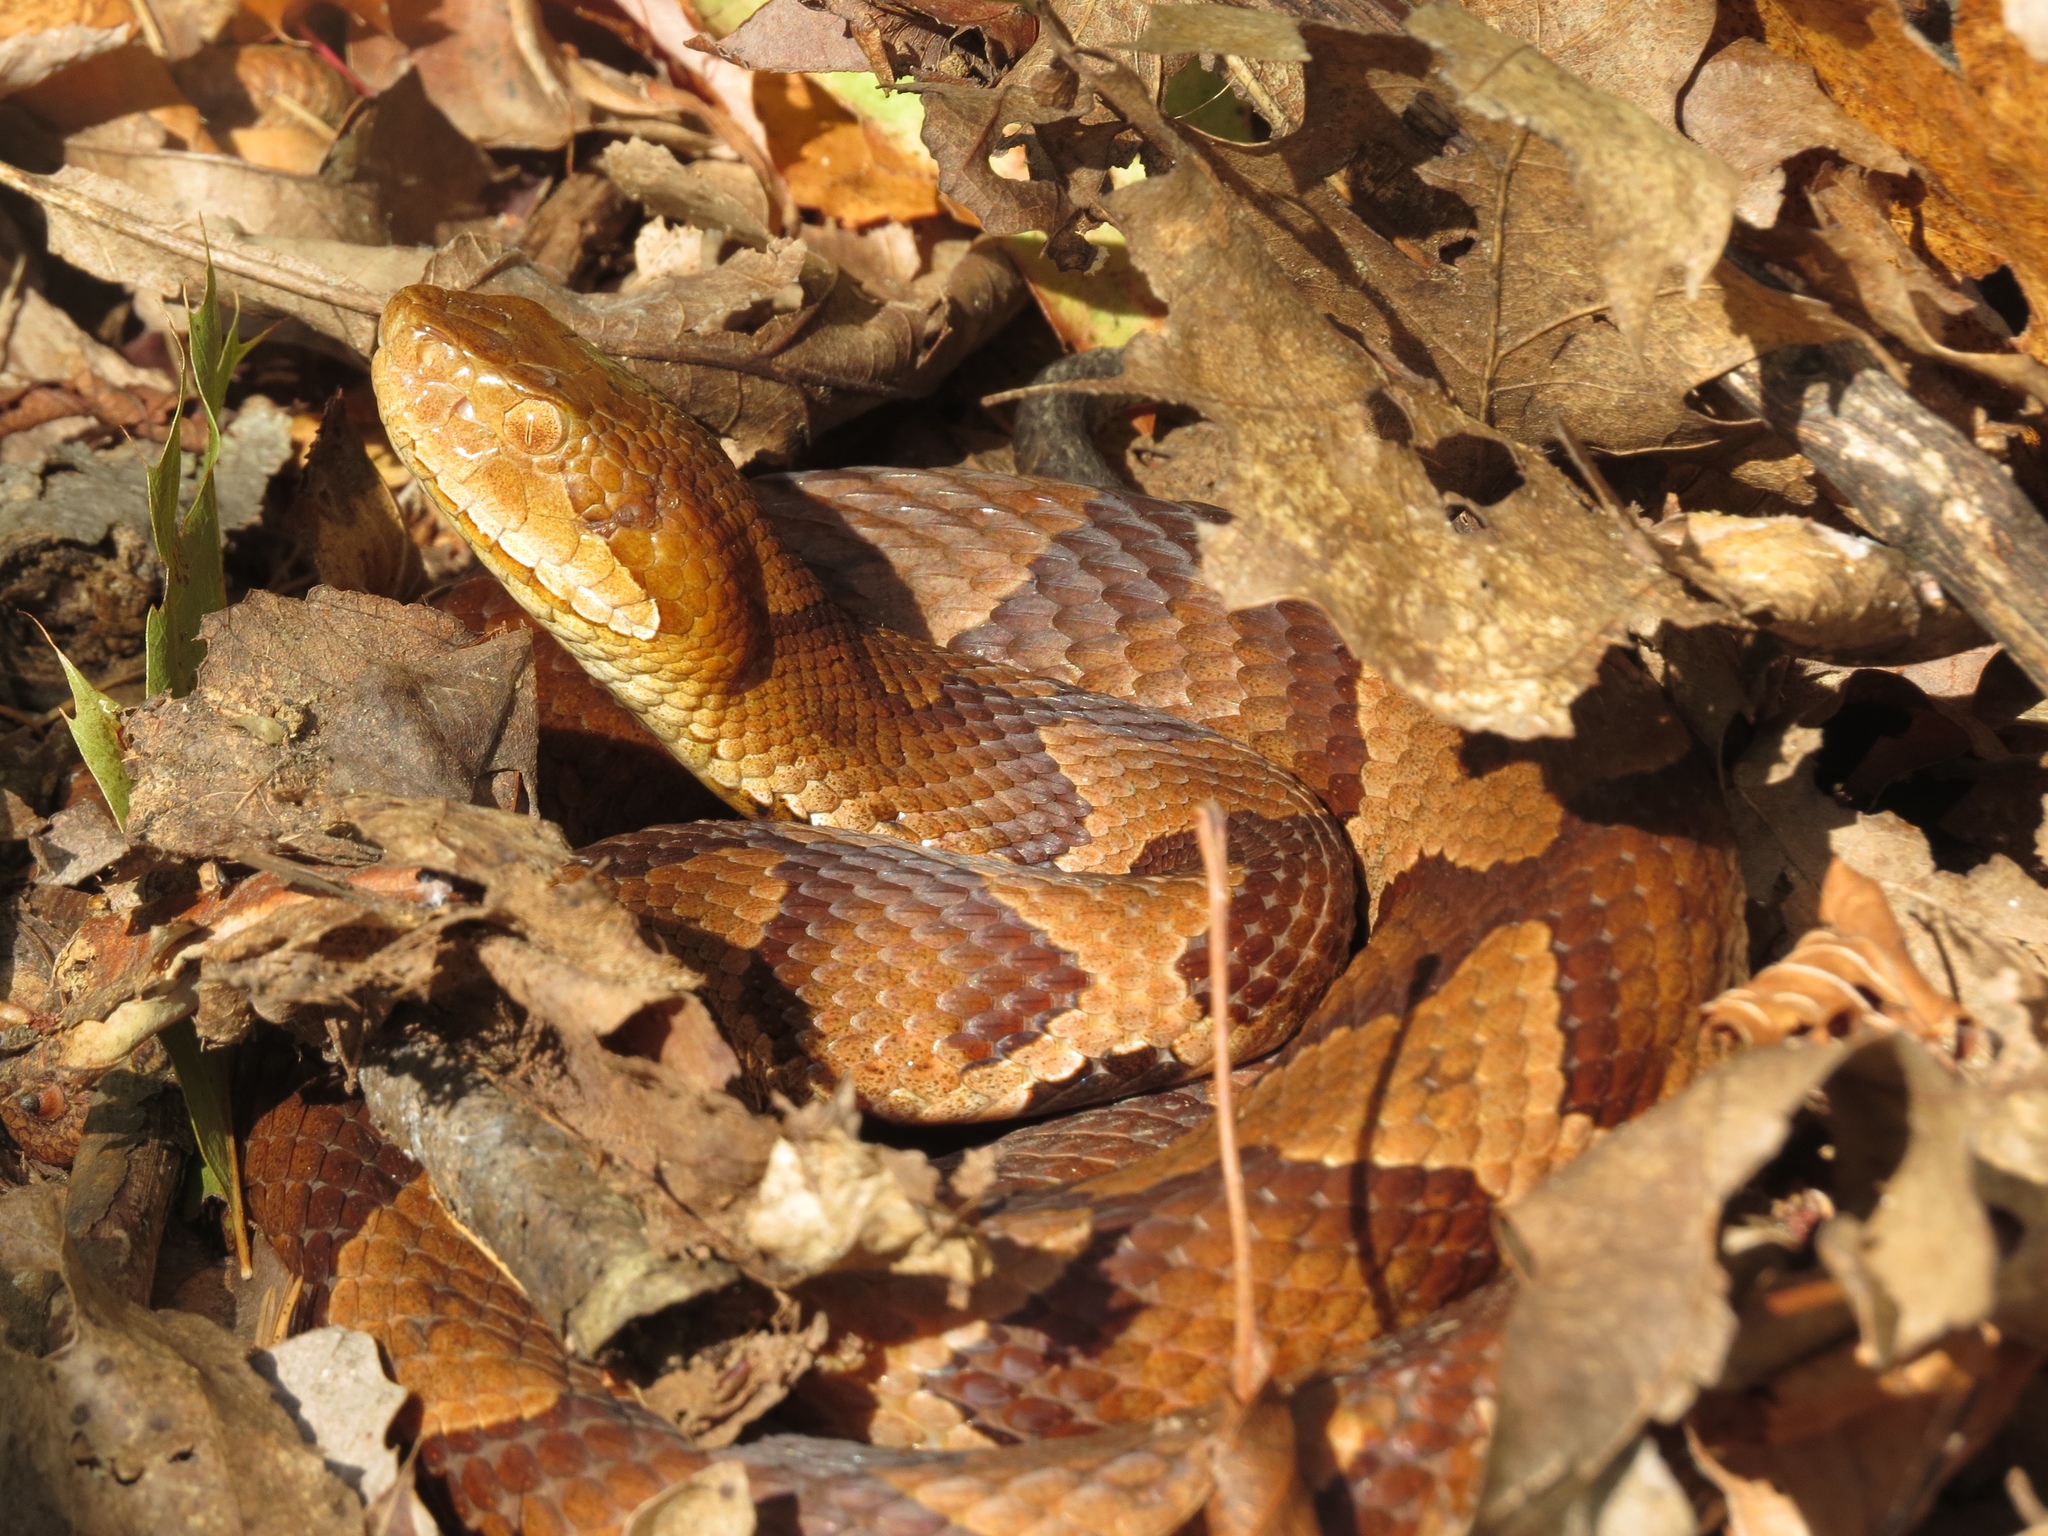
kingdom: Animalia
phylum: Chordata
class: Squamata
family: Viperidae
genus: Agkistrodon
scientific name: Agkistrodon contortrix
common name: Northern copperhead
